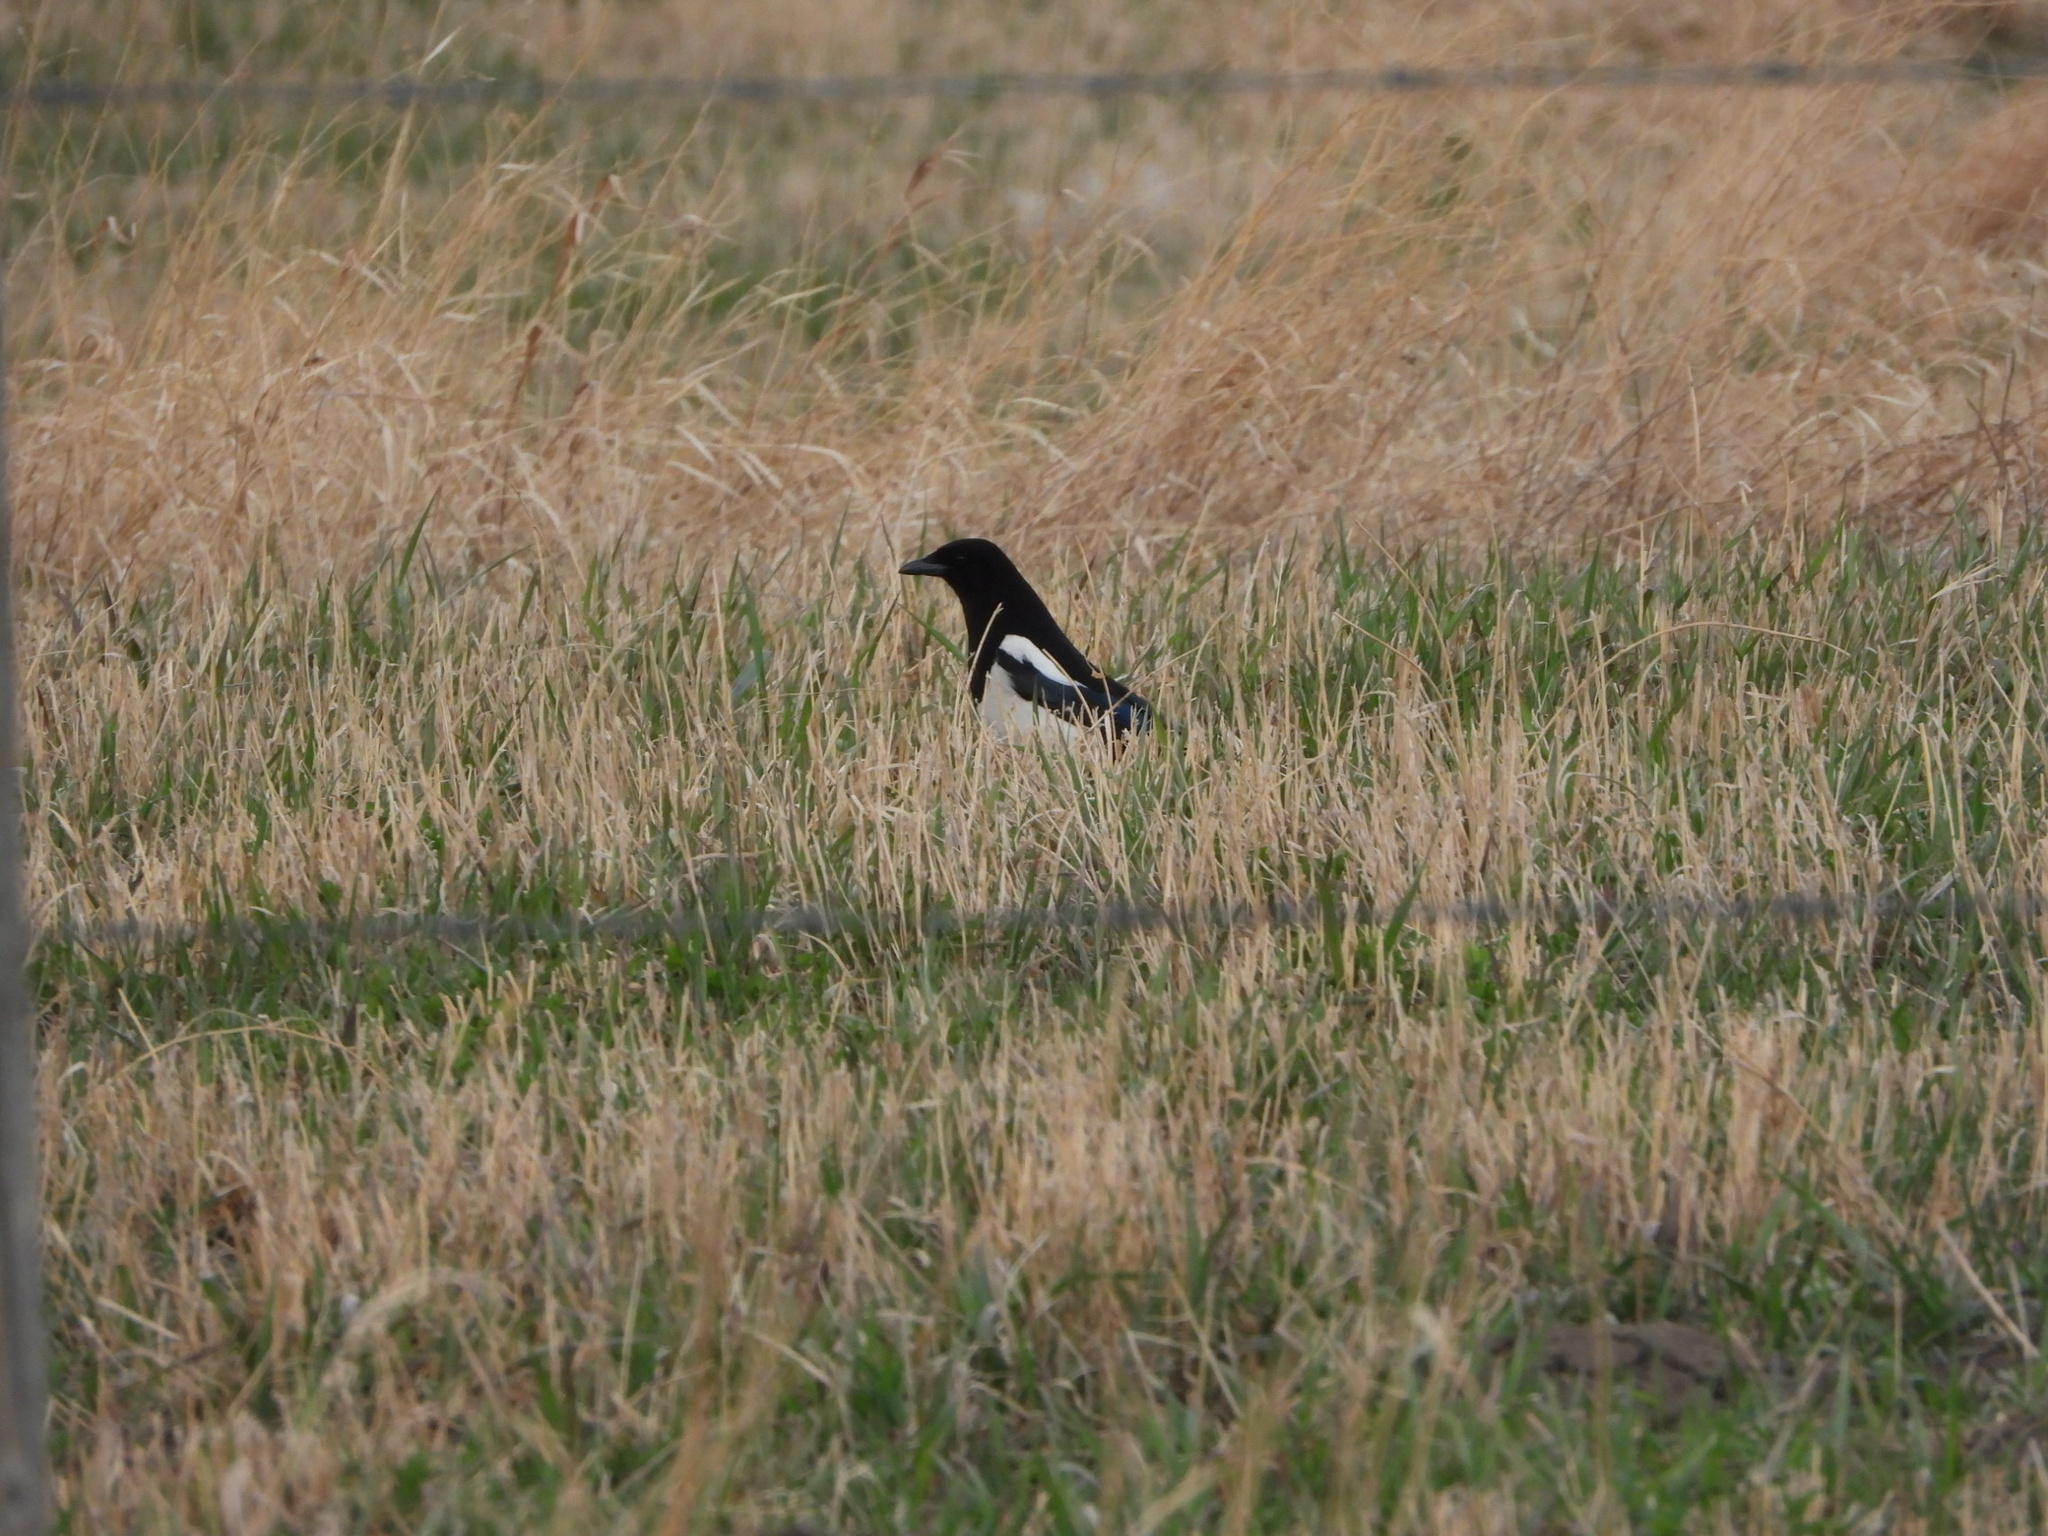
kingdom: Animalia
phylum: Chordata
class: Aves
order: Passeriformes
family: Corvidae
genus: Pica
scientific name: Pica hudsonia
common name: Black-billed magpie
